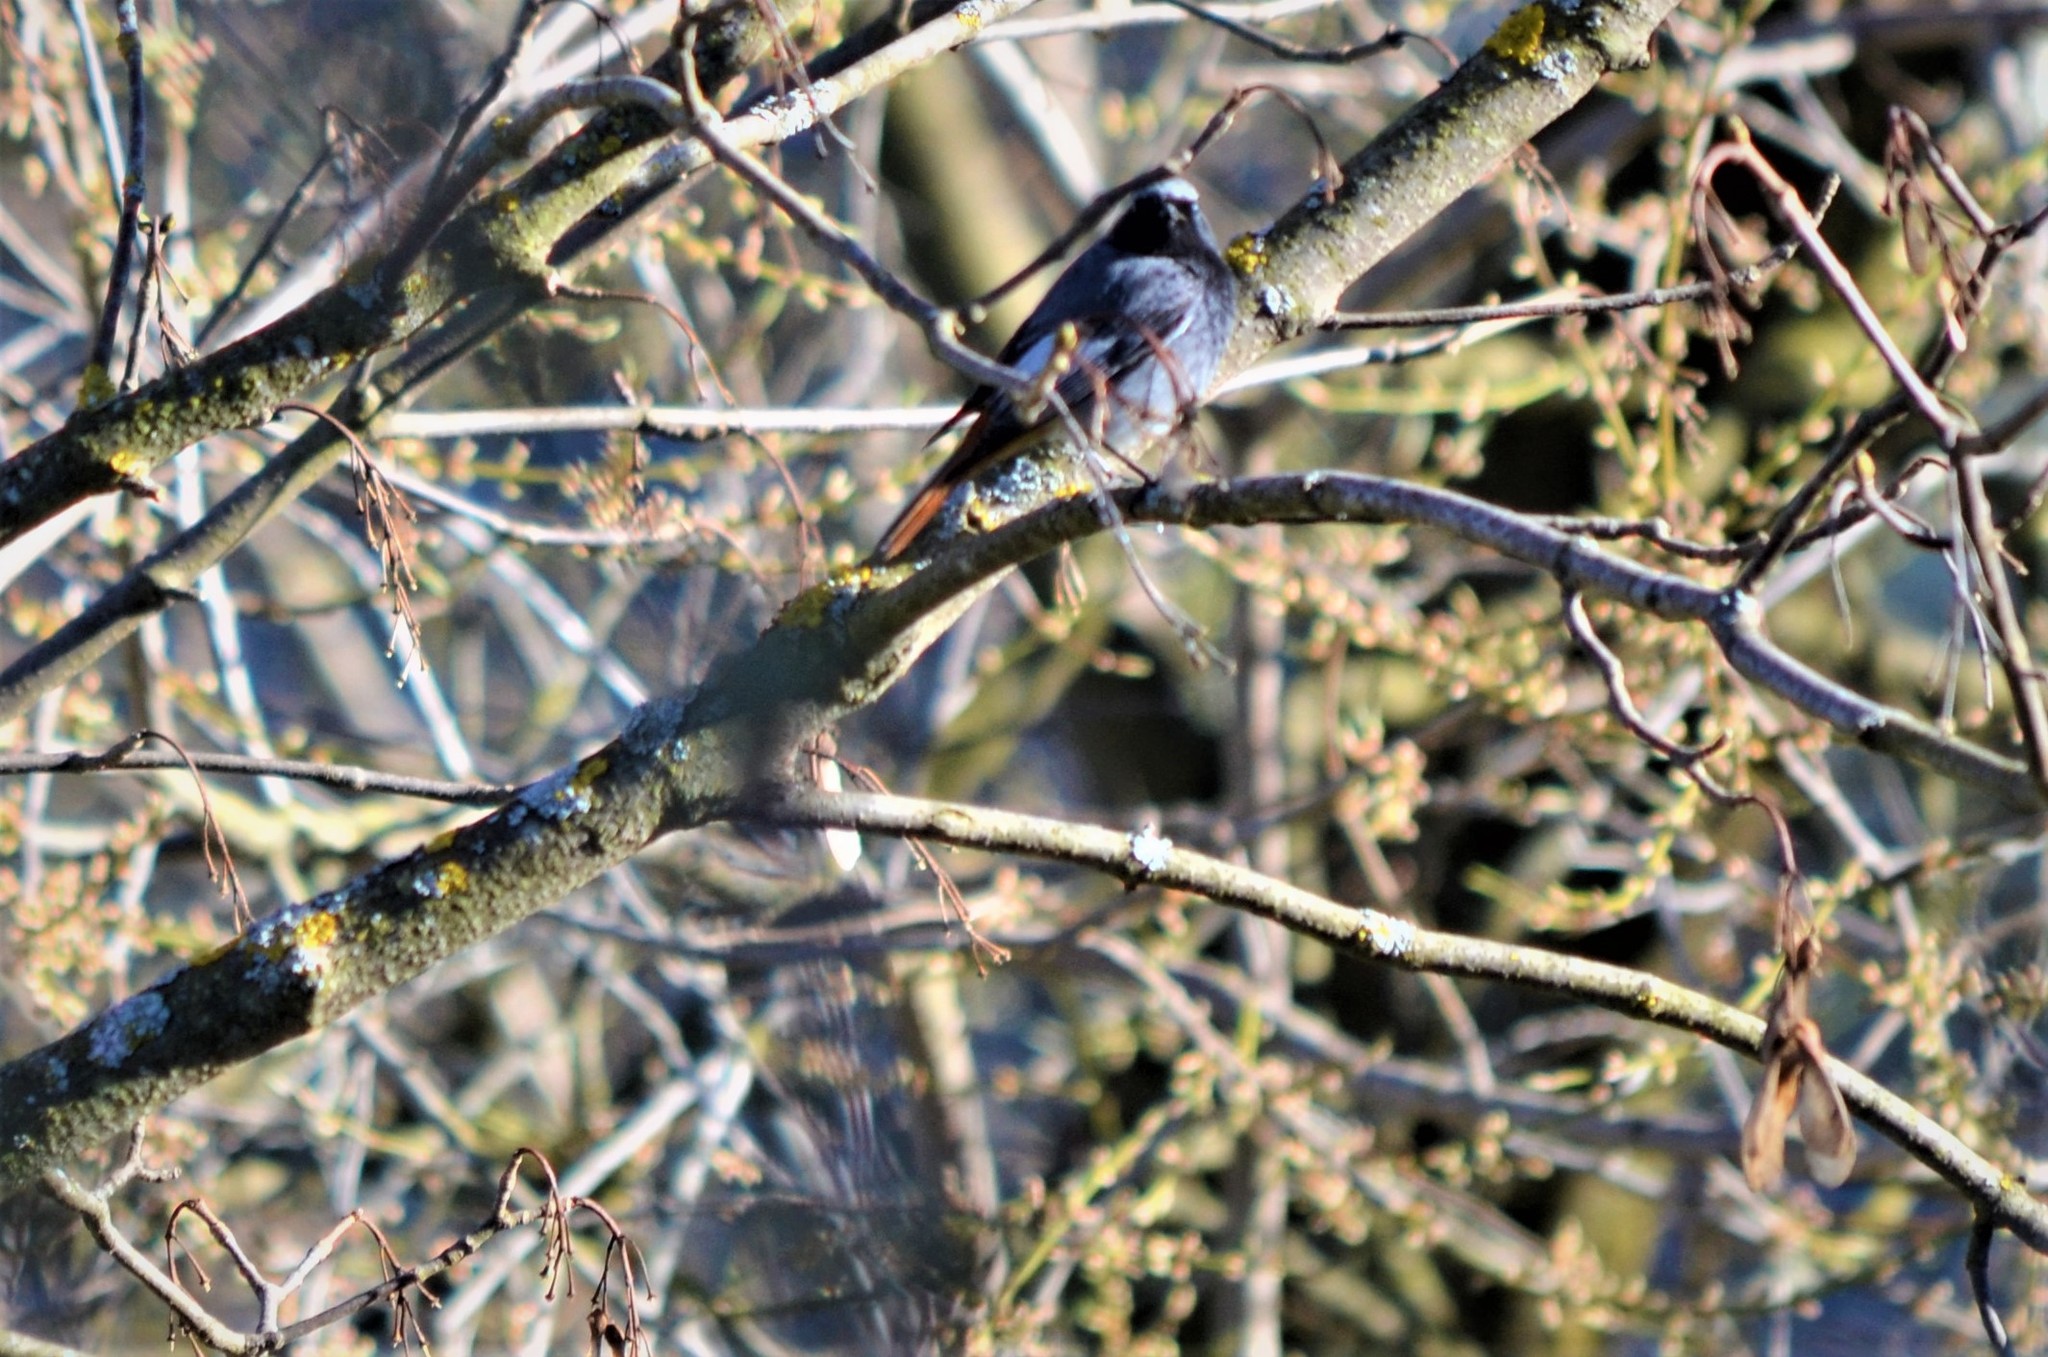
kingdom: Animalia
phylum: Chordata
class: Aves
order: Passeriformes
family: Muscicapidae
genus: Phoenicurus
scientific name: Phoenicurus ochruros
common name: Black redstart
